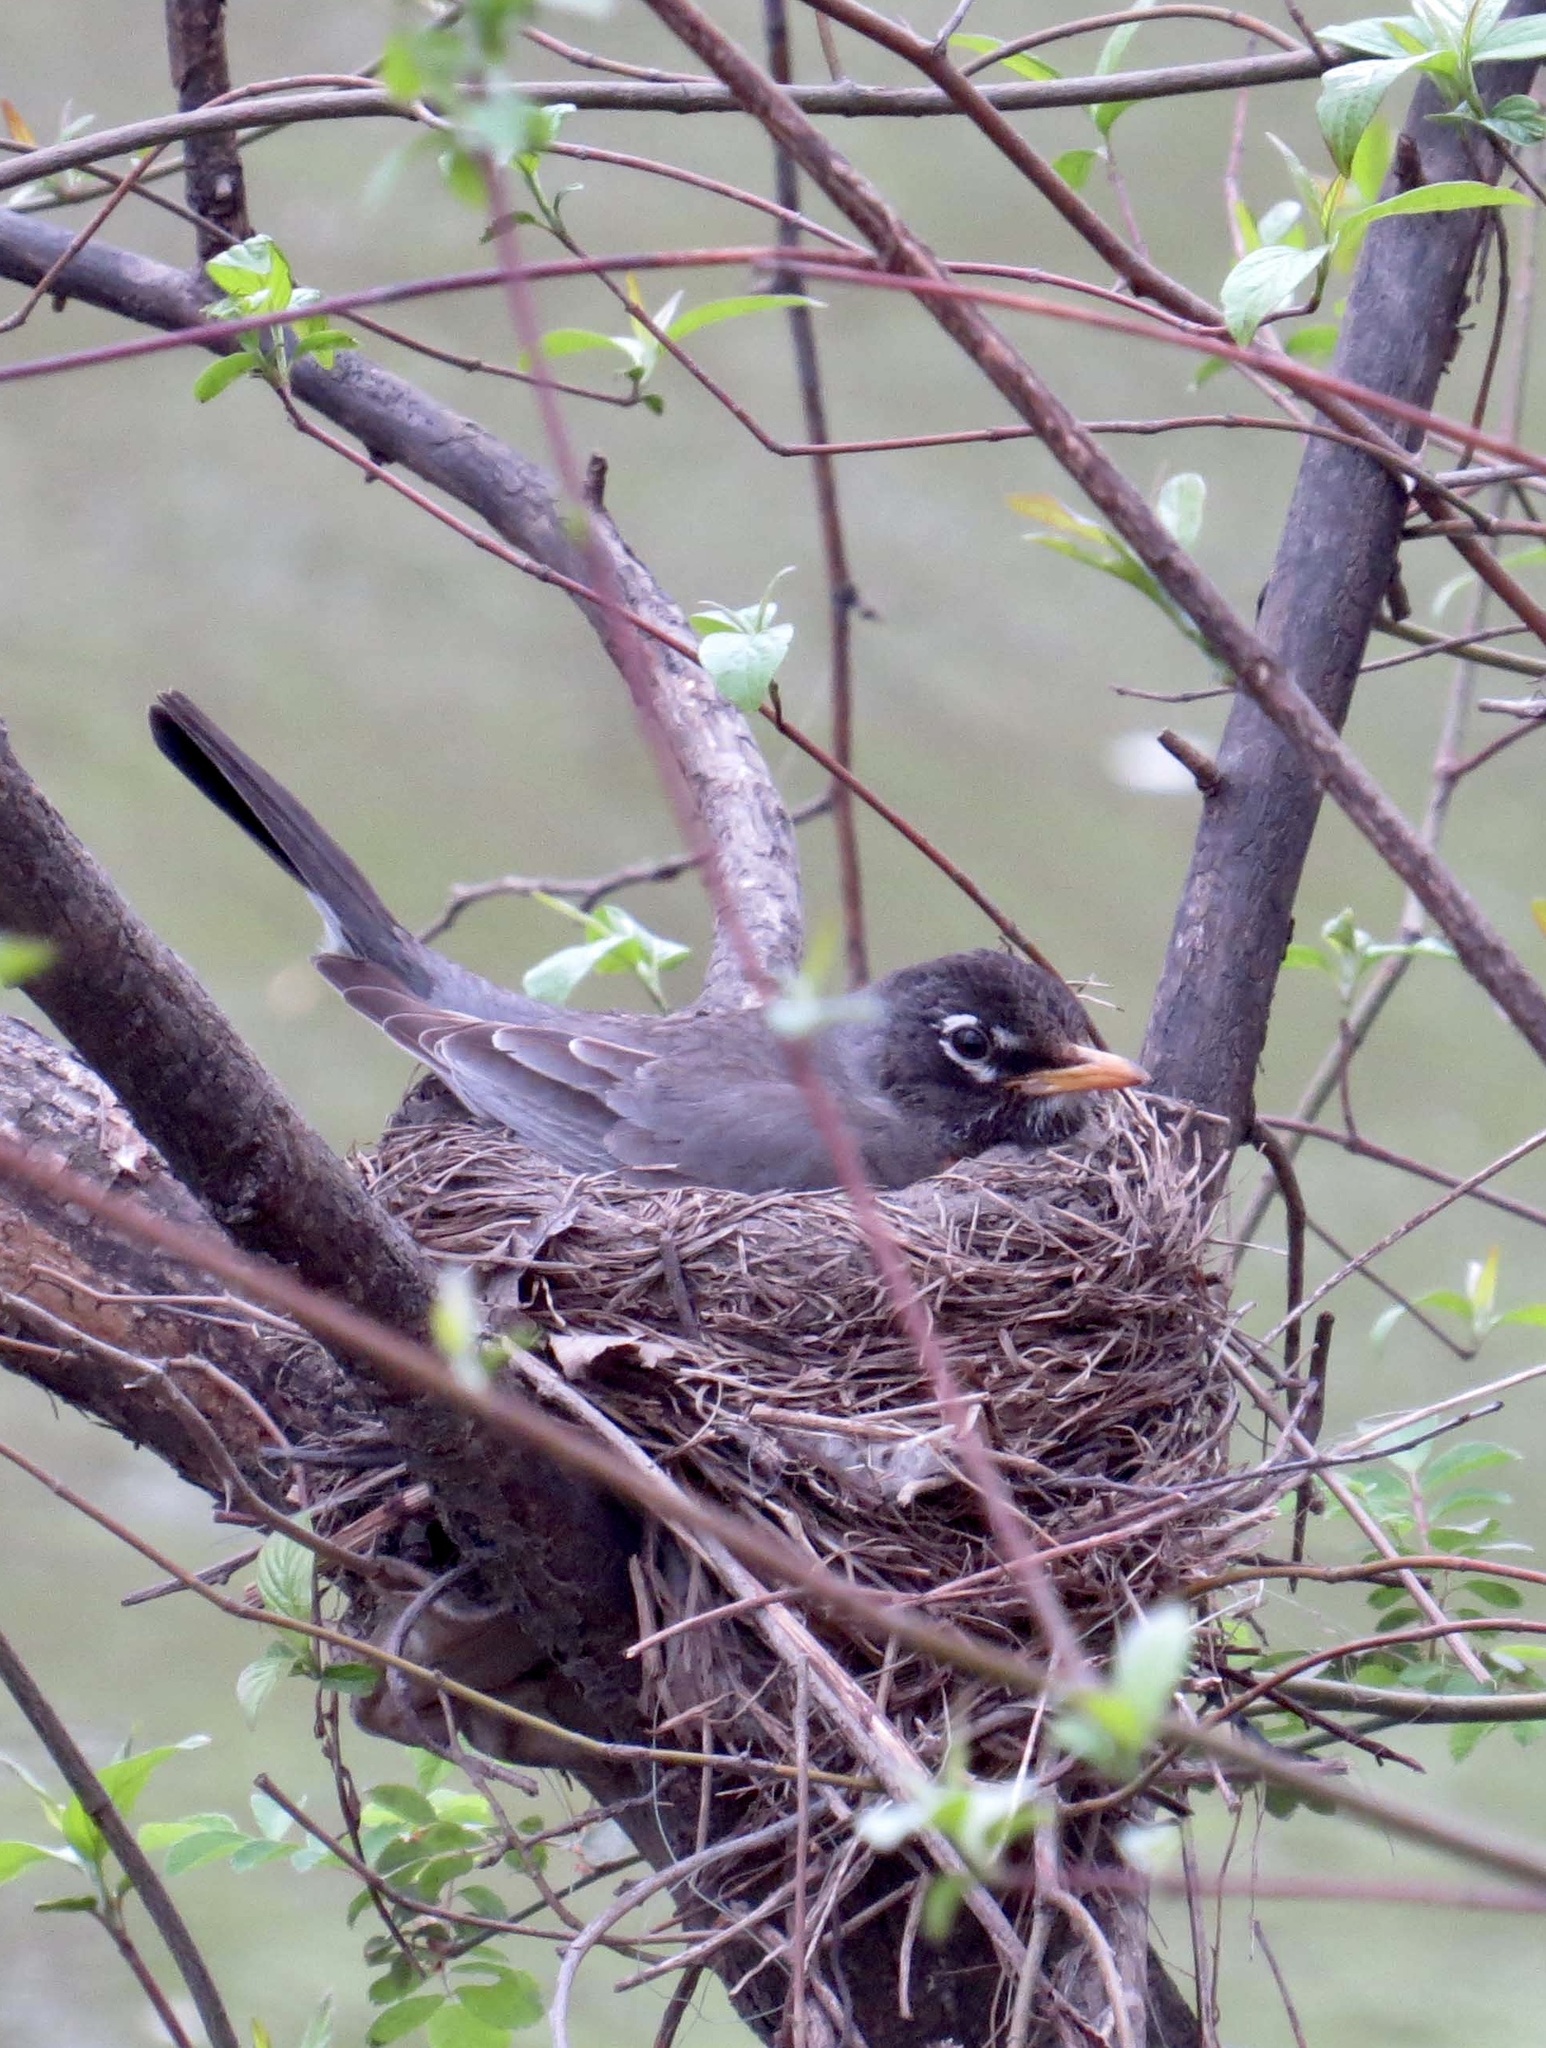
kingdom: Animalia
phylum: Chordata
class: Aves
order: Passeriformes
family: Turdidae
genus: Turdus
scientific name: Turdus migratorius
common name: American robin
